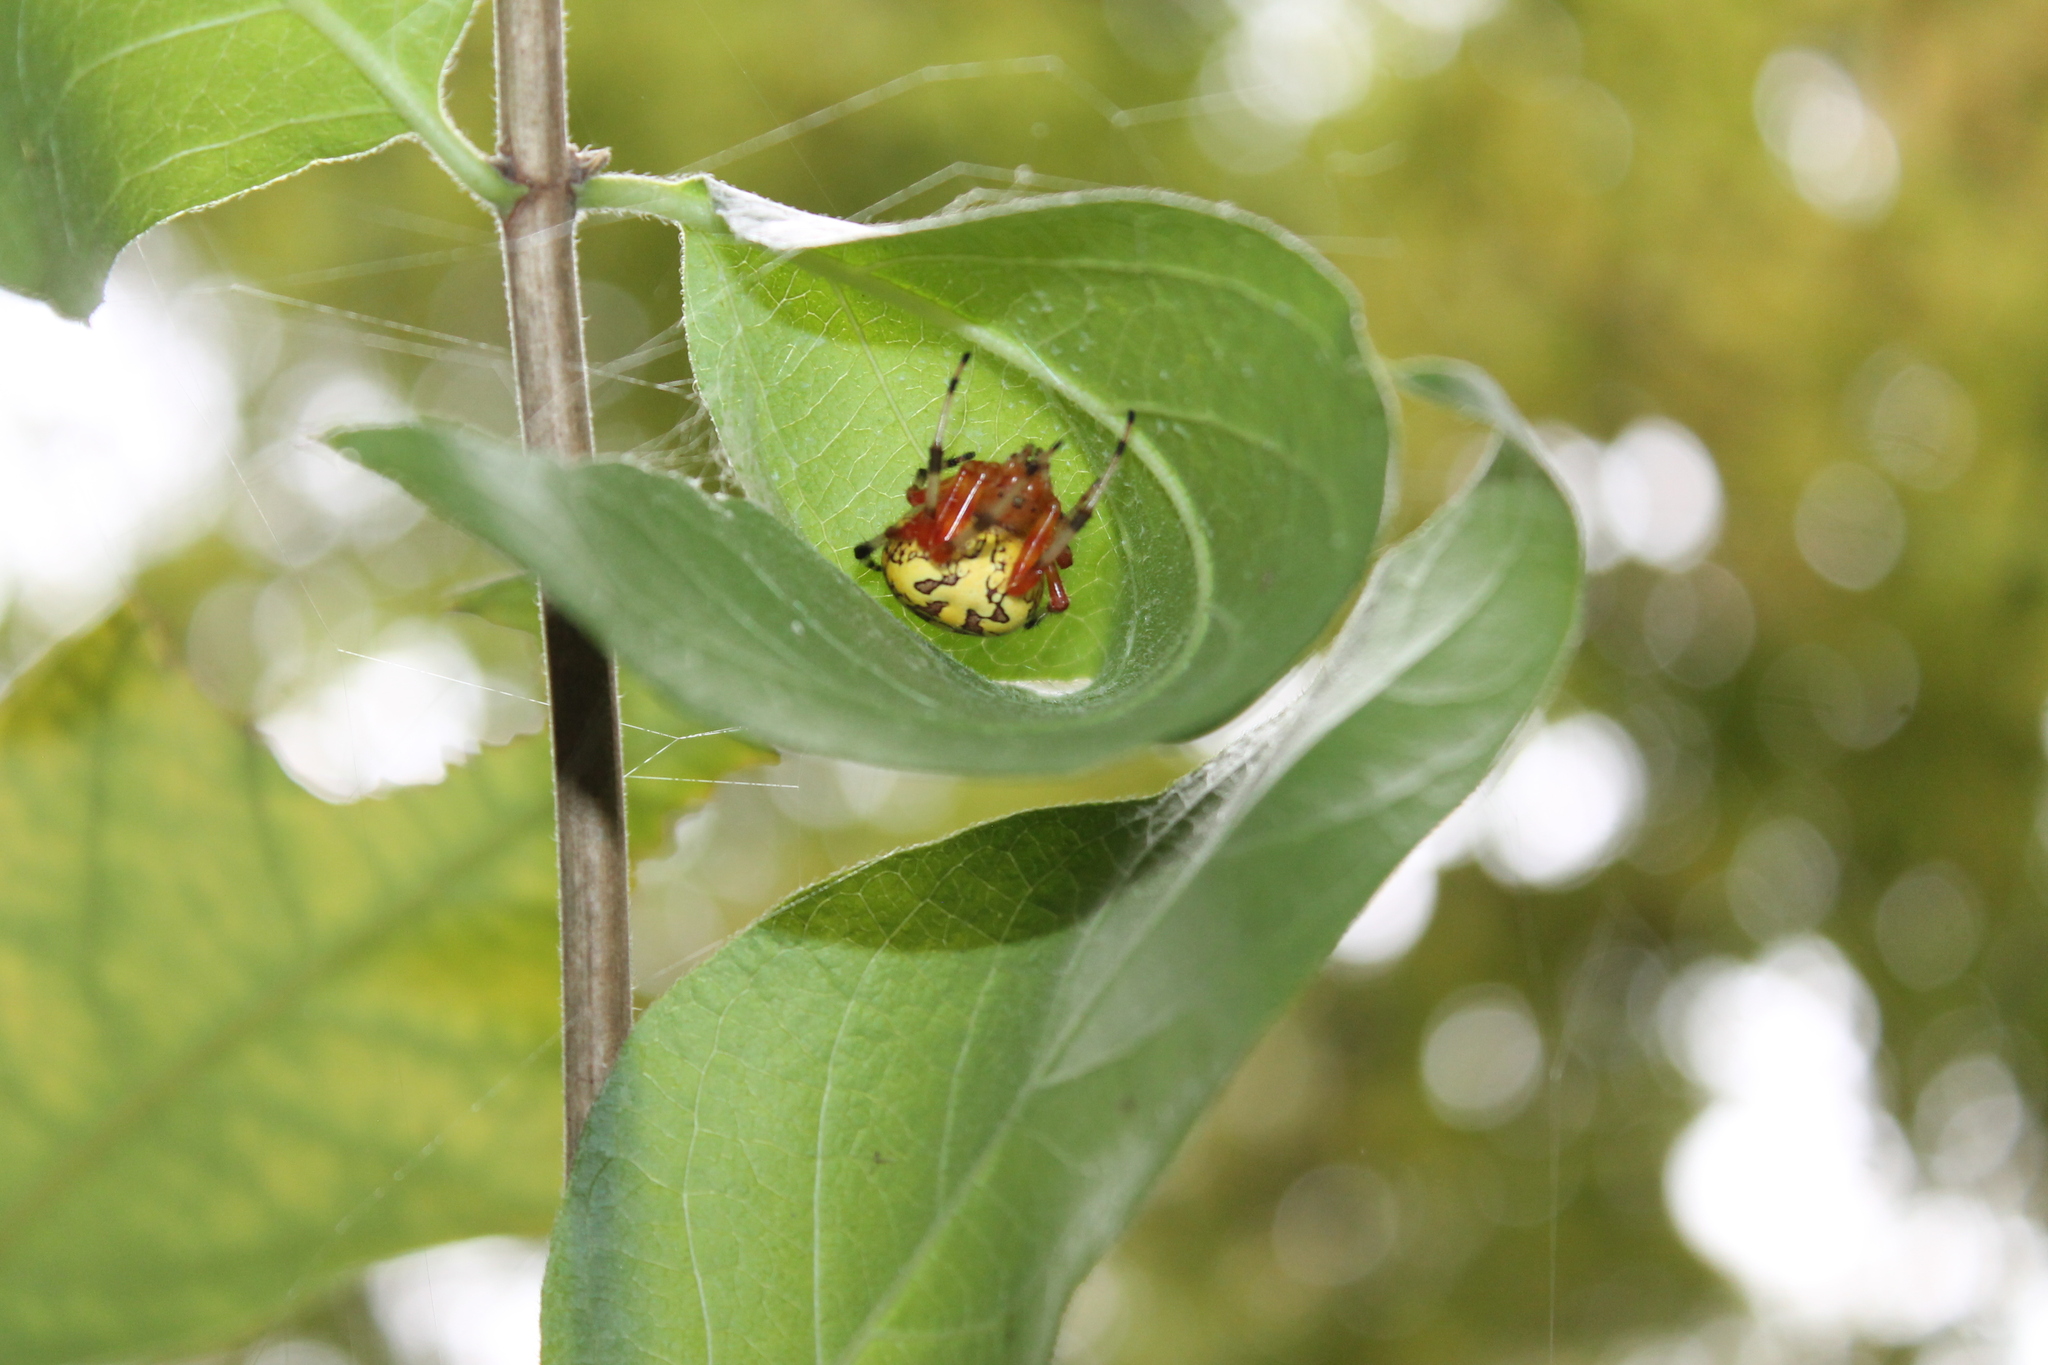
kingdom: Animalia
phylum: Arthropoda
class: Arachnida
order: Araneae
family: Araneidae
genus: Araneus
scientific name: Araneus marmoreus
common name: Marbled orbweaver
